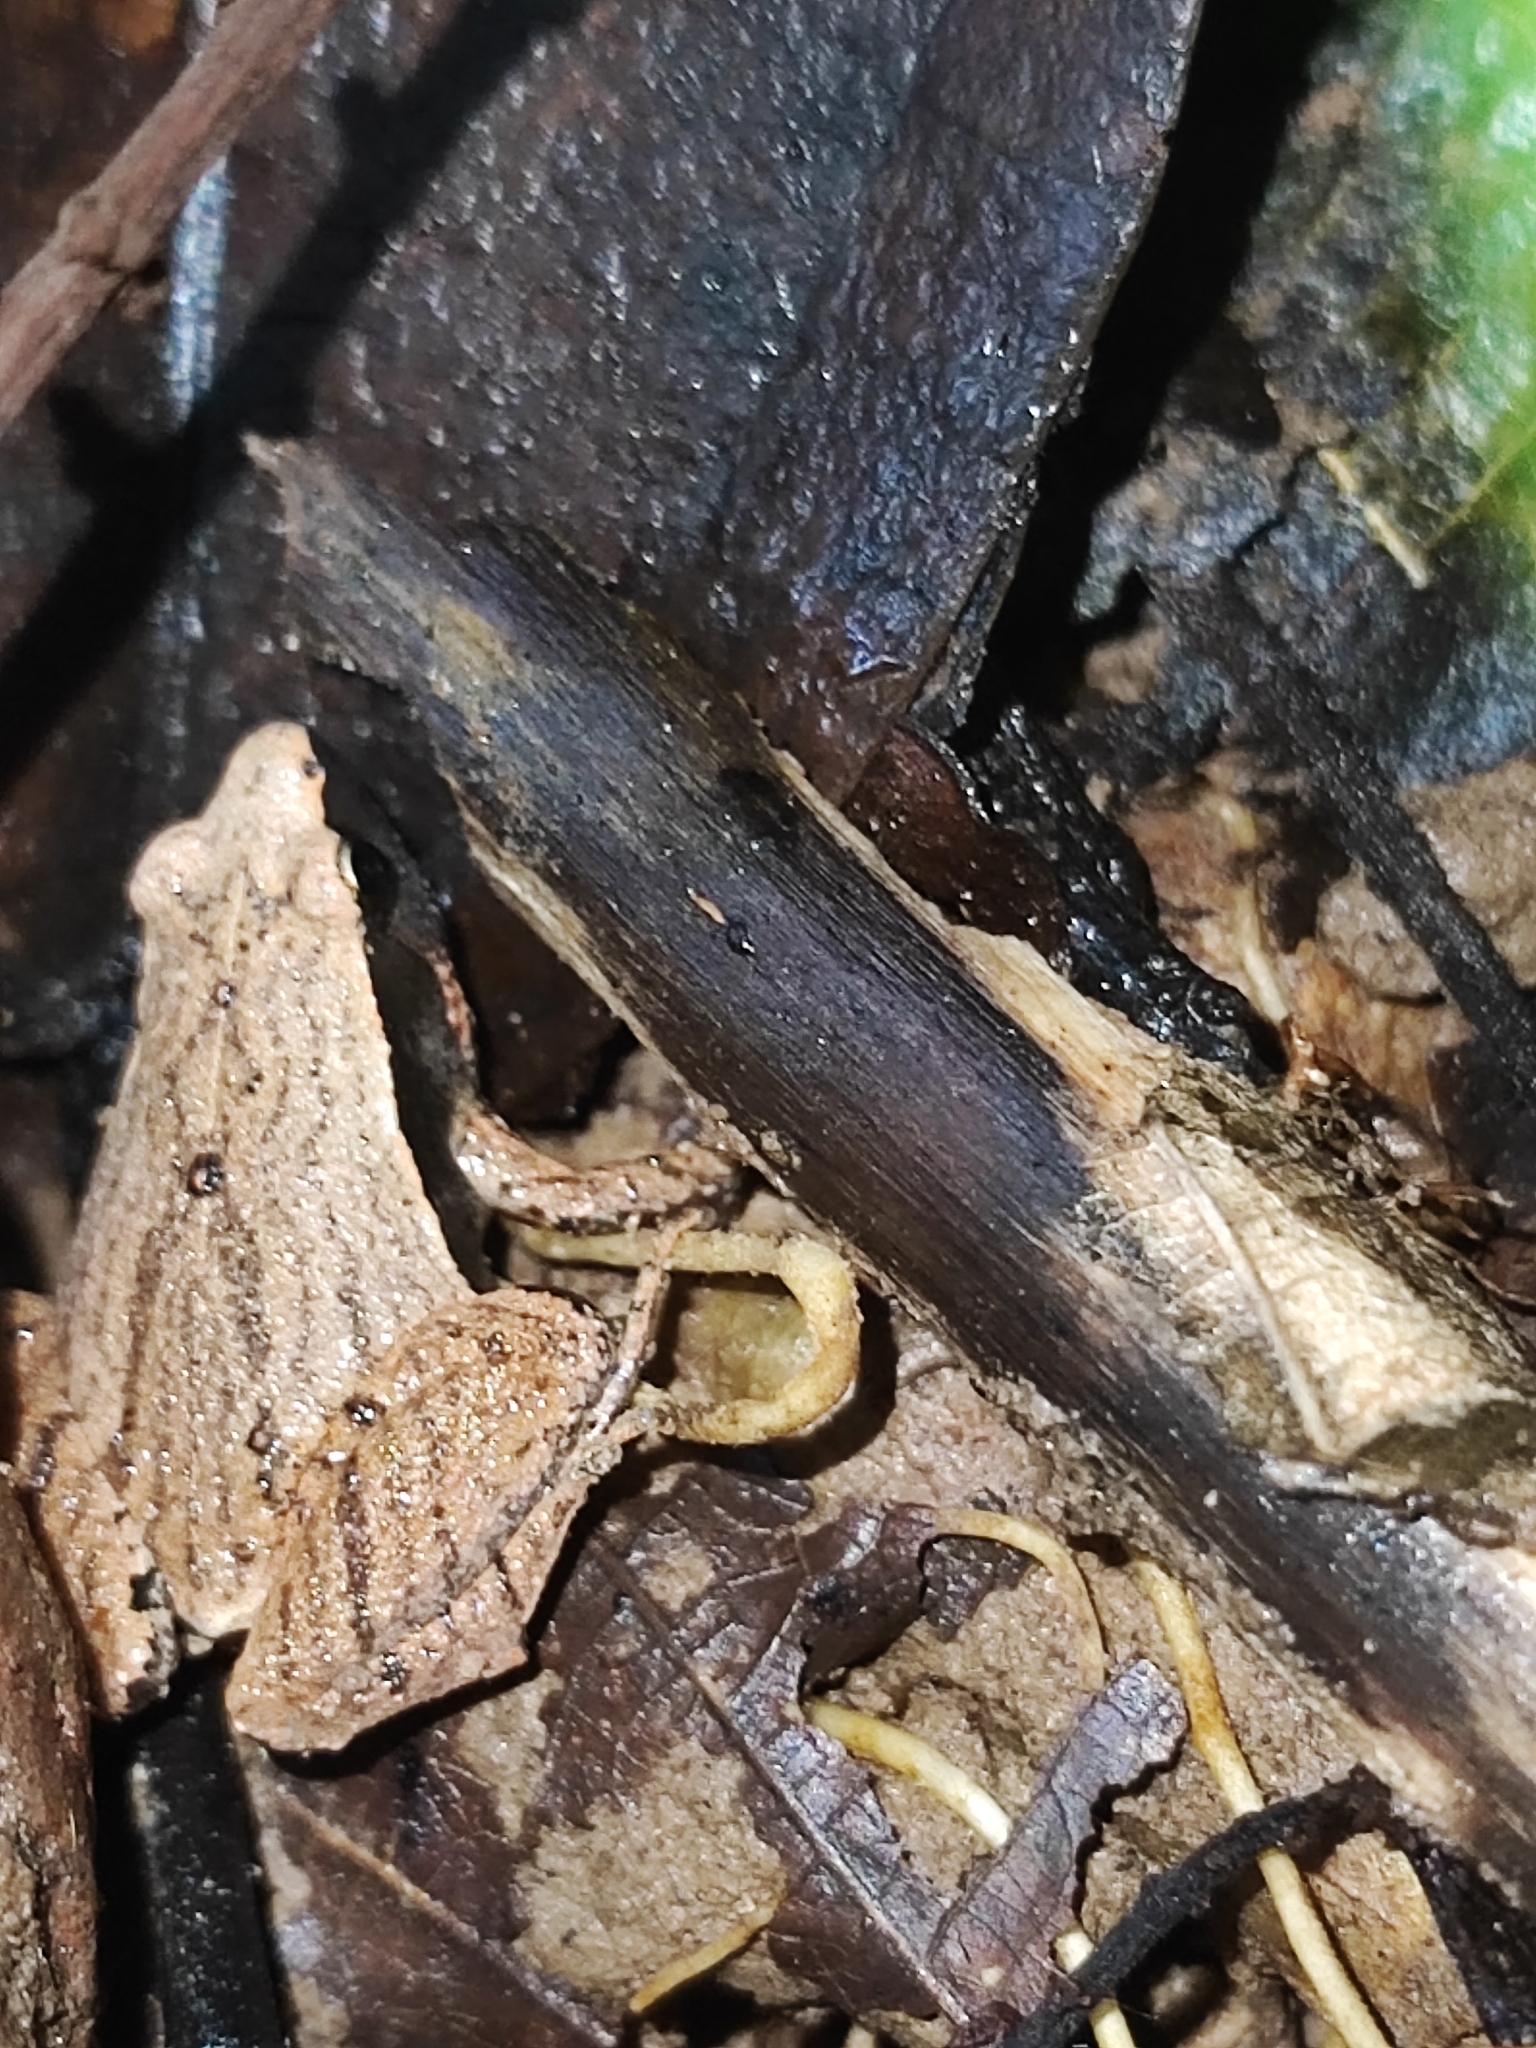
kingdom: Animalia
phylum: Chordata
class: Amphibia
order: Anura
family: Microhylidae
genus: Microhyla
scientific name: Microhyla heymonsi
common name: Taiwan rice frog,dark sided chorus frog
